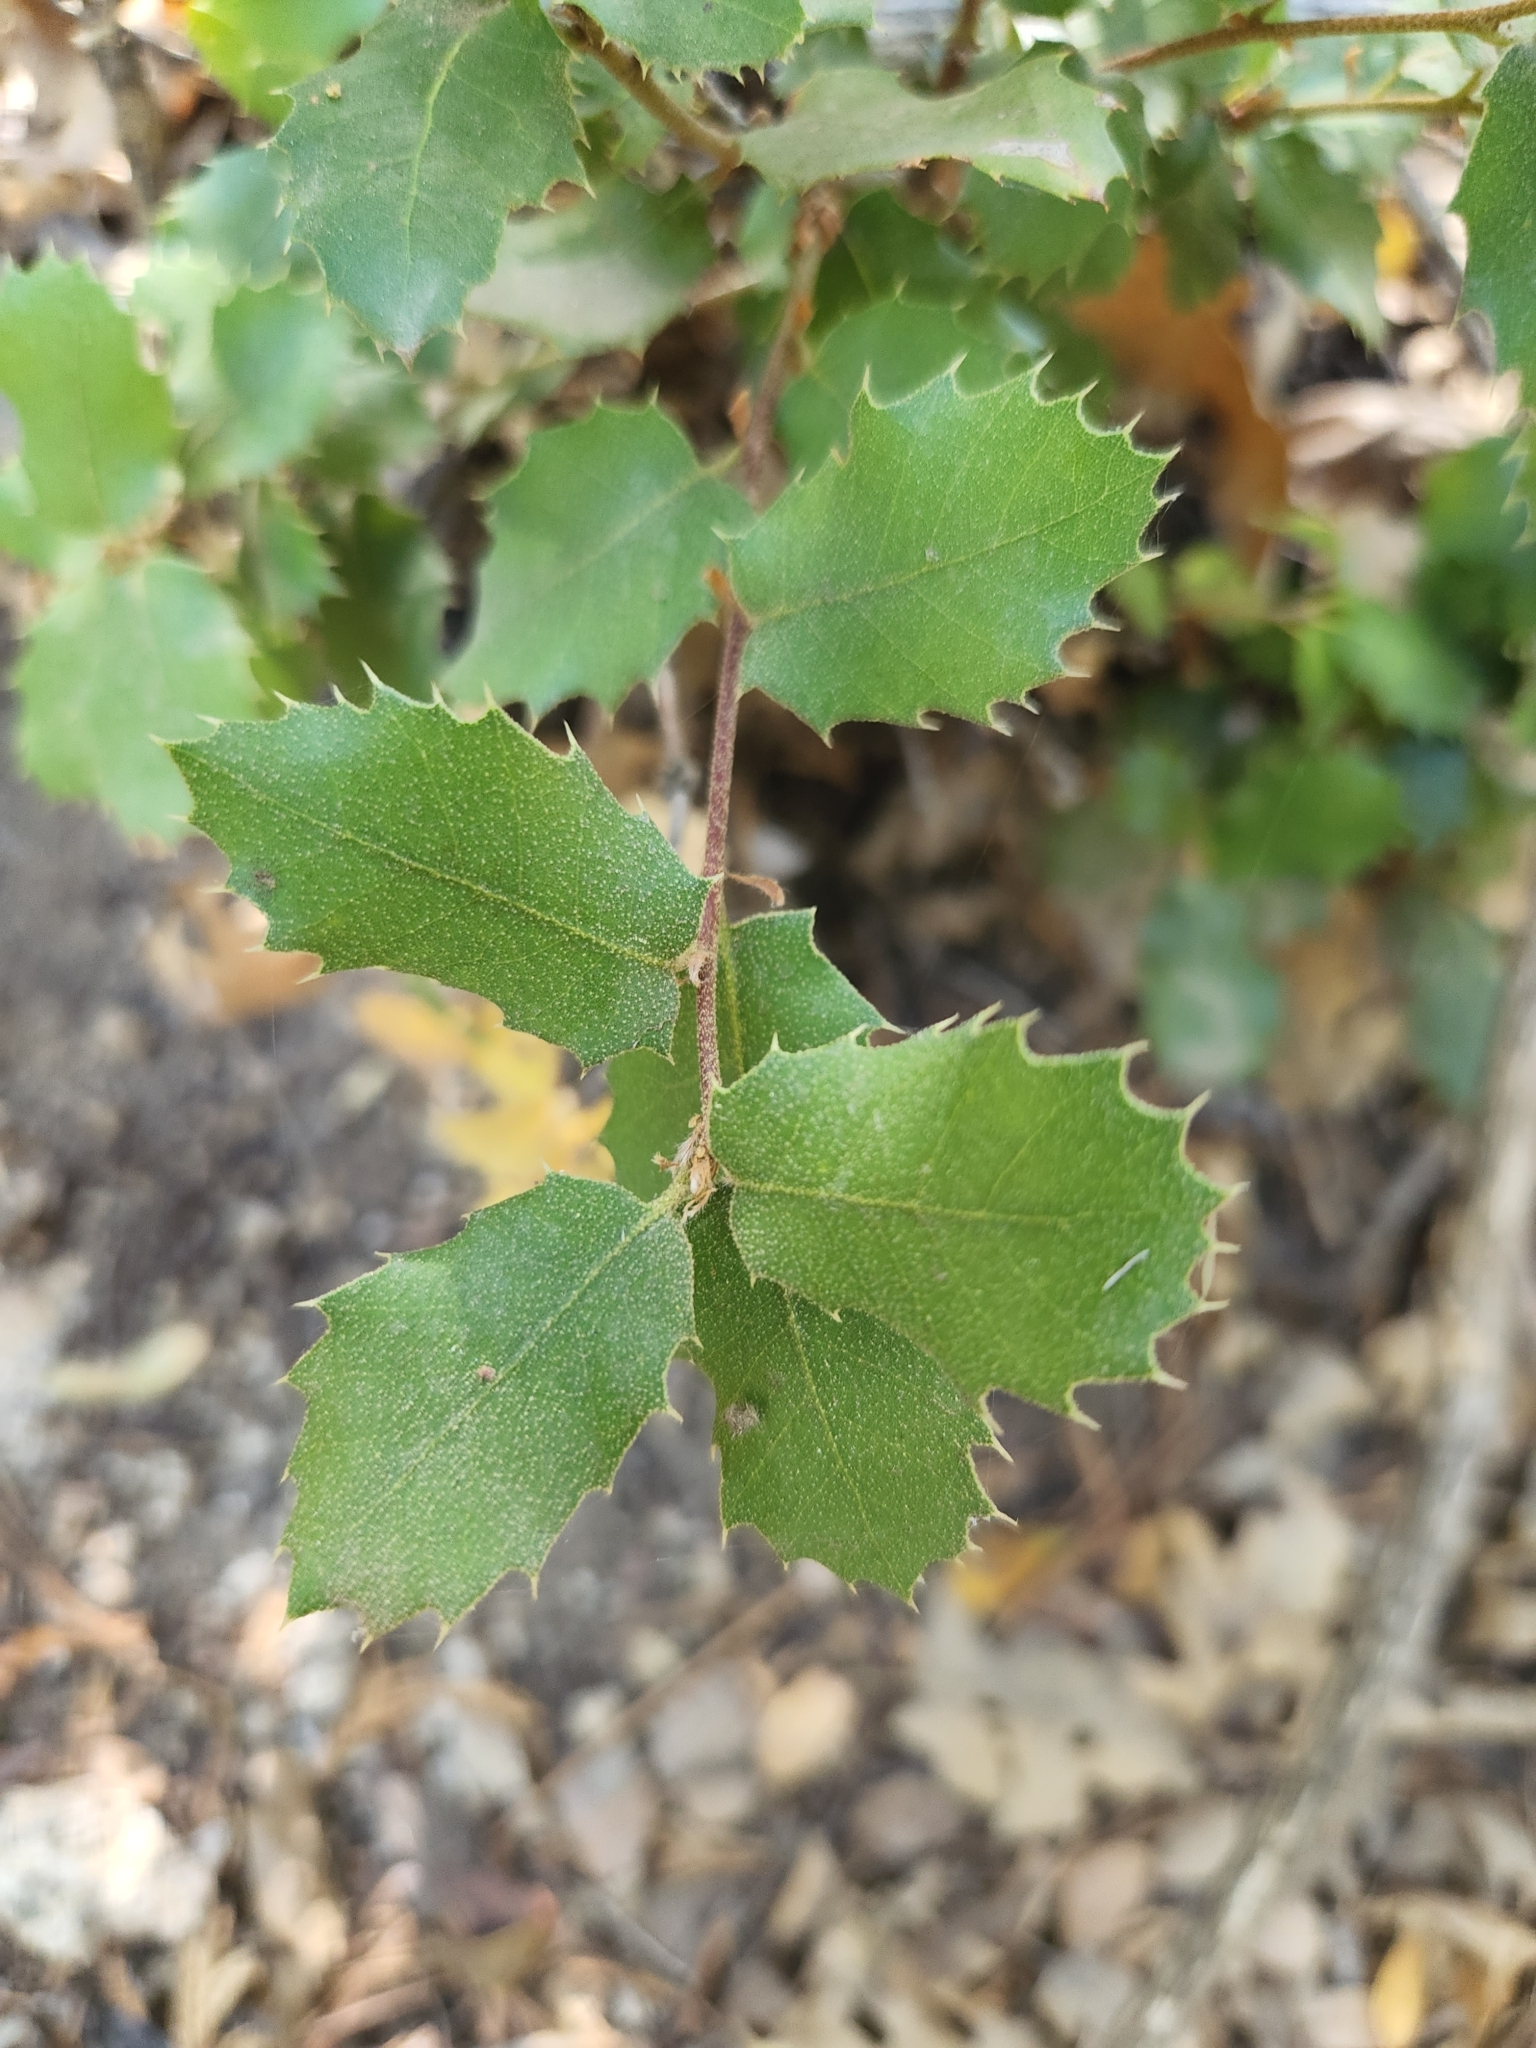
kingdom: Plantae
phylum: Tracheophyta
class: Magnoliopsida
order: Fagales
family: Fagaceae
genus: Quercus
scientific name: Quercus chrysolepis
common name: Canyon live oak
